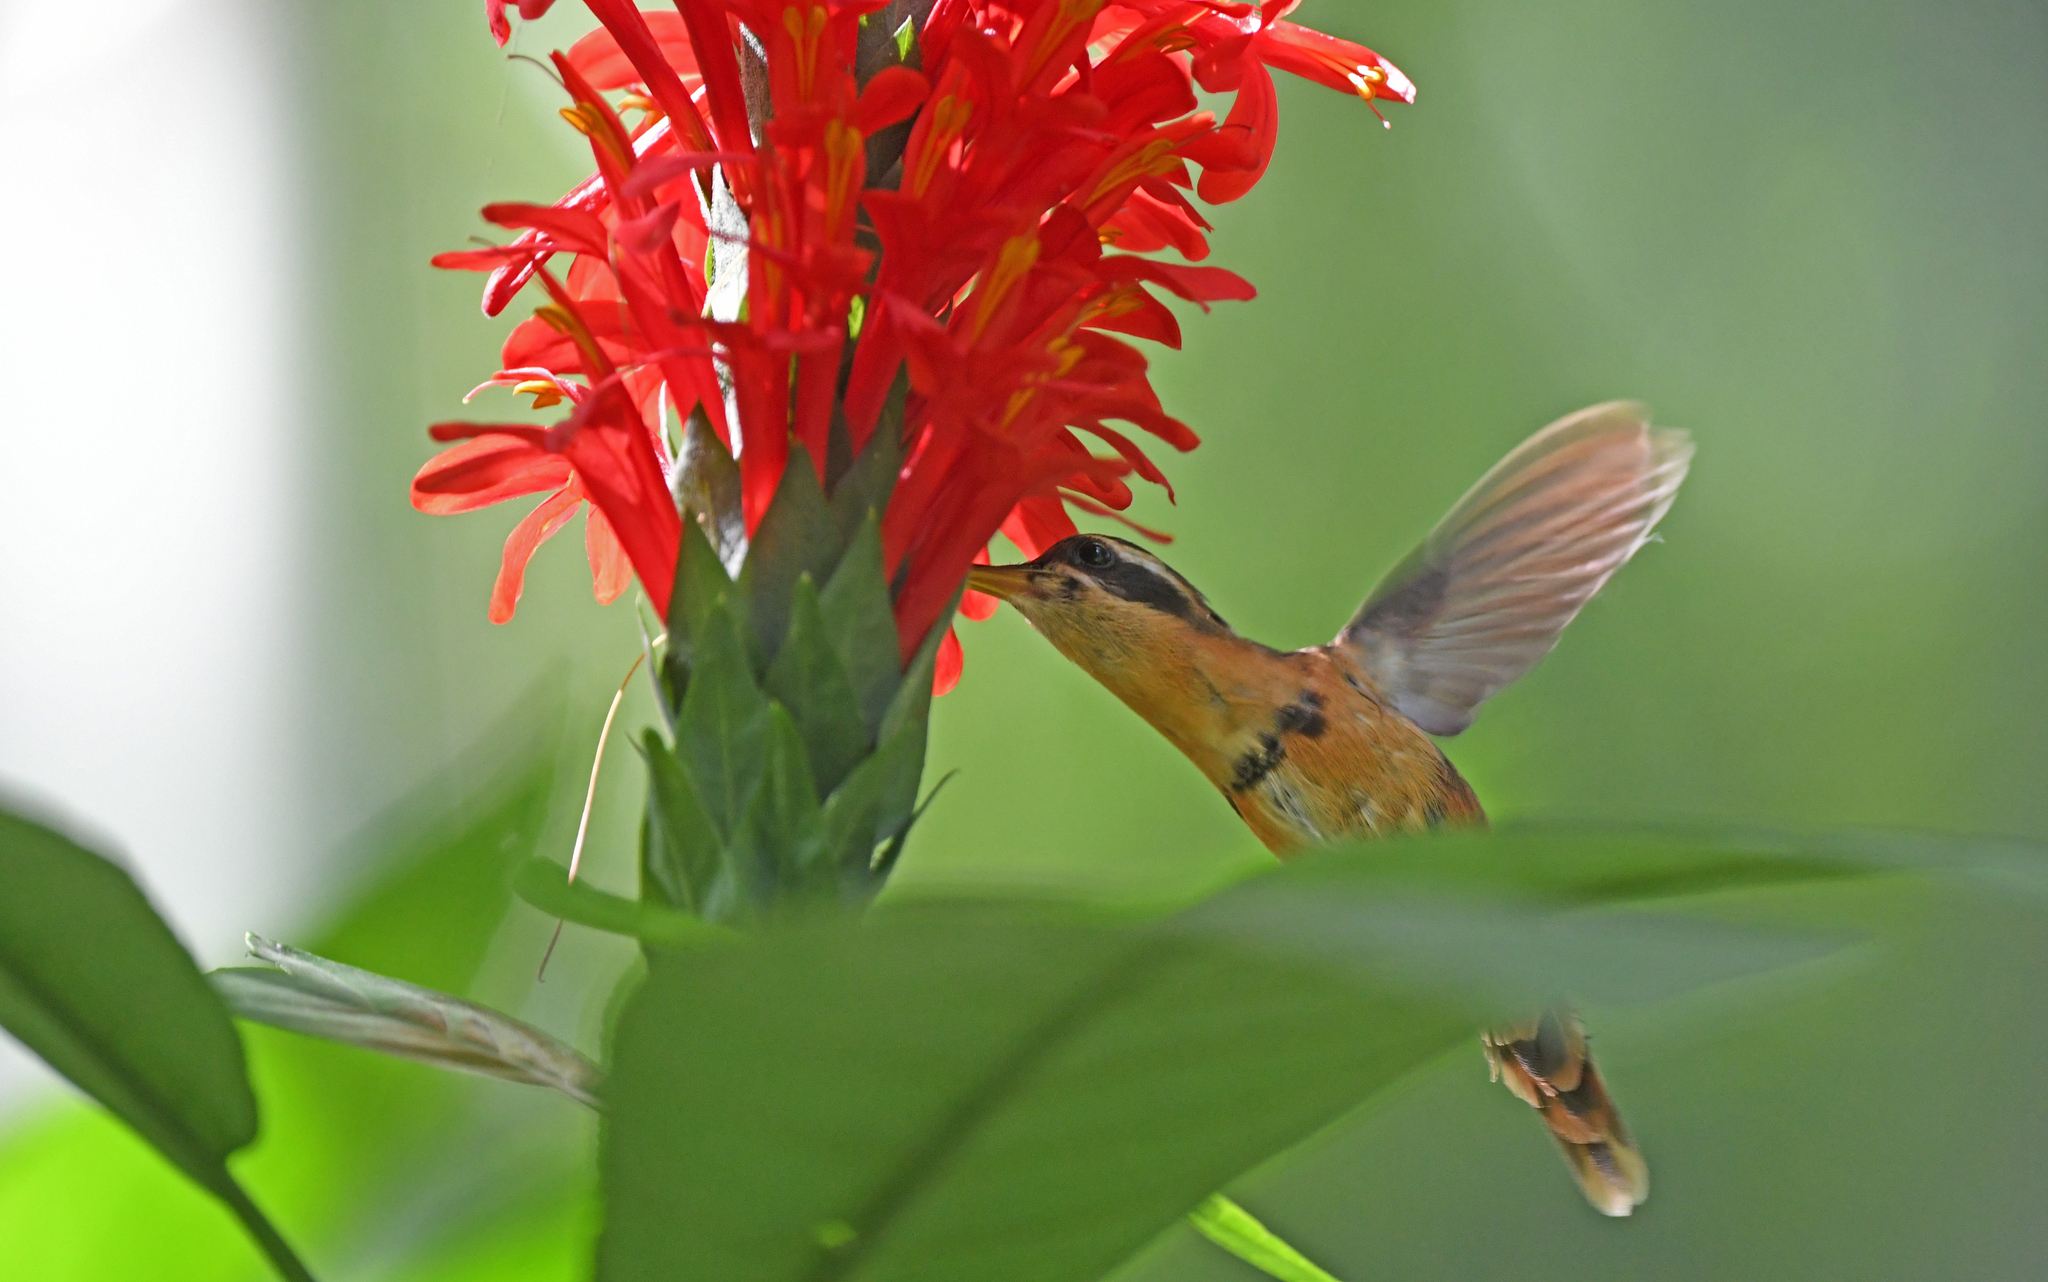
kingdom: Animalia
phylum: Chordata
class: Aves
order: Apodiformes
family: Trochilidae
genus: Phaethornis
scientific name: Phaethornis stuarti
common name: White-browed hermit
